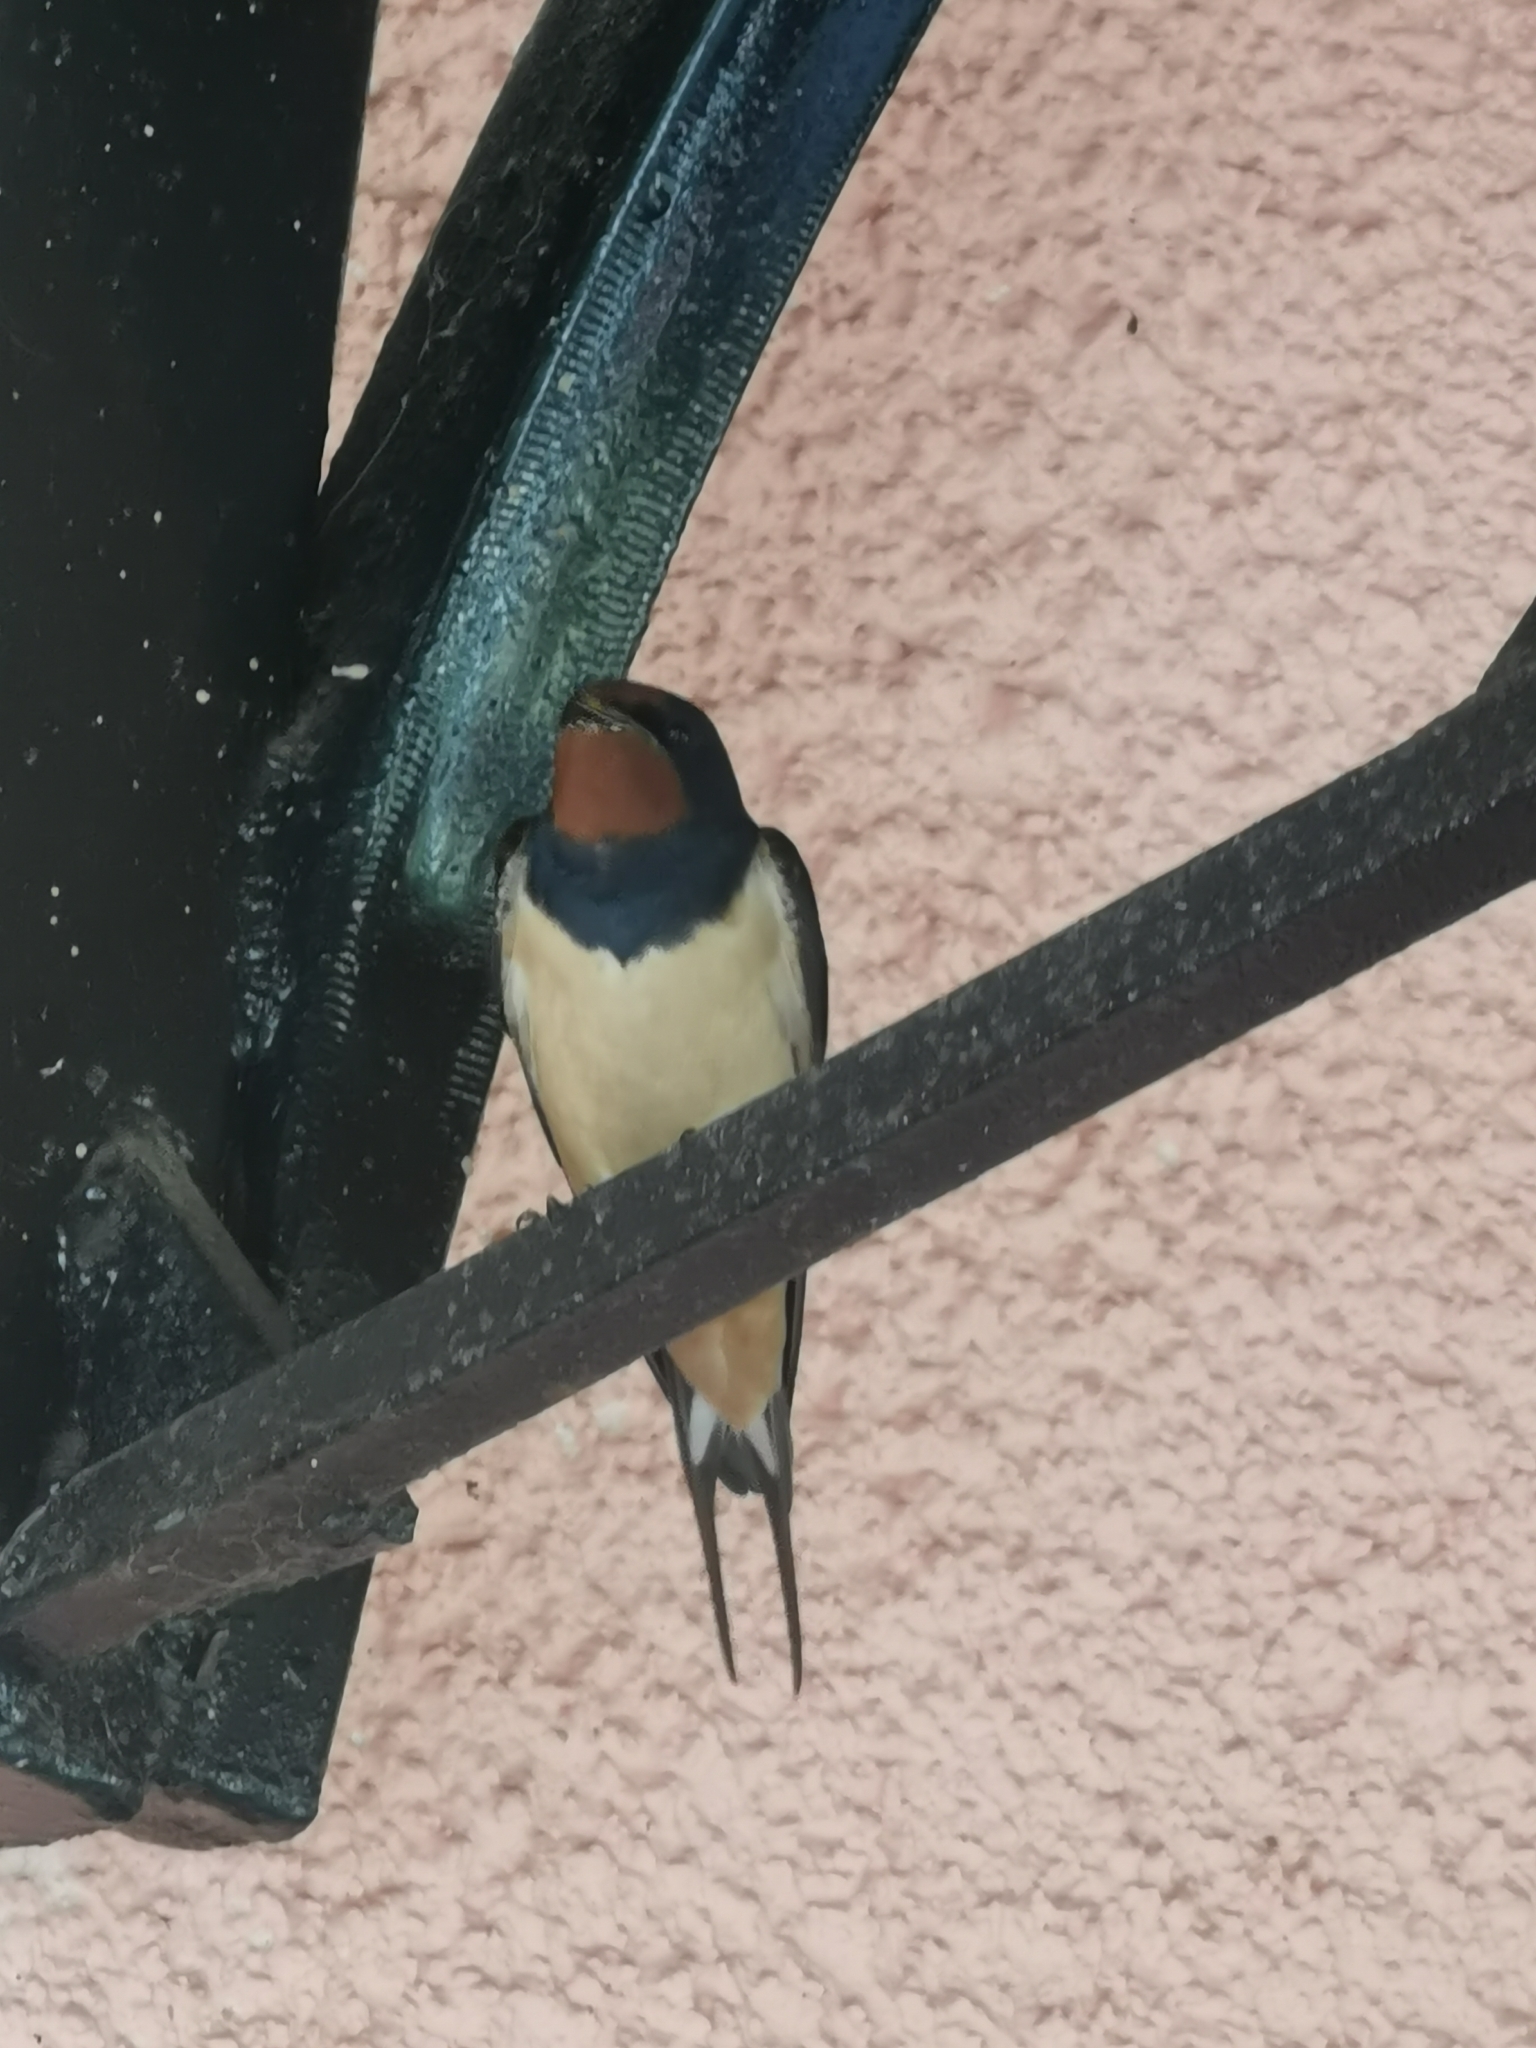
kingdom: Animalia
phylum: Chordata
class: Aves
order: Passeriformes
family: Hirundinidae
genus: Hirundo
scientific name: Hirundo rustica
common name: Barn swallow
